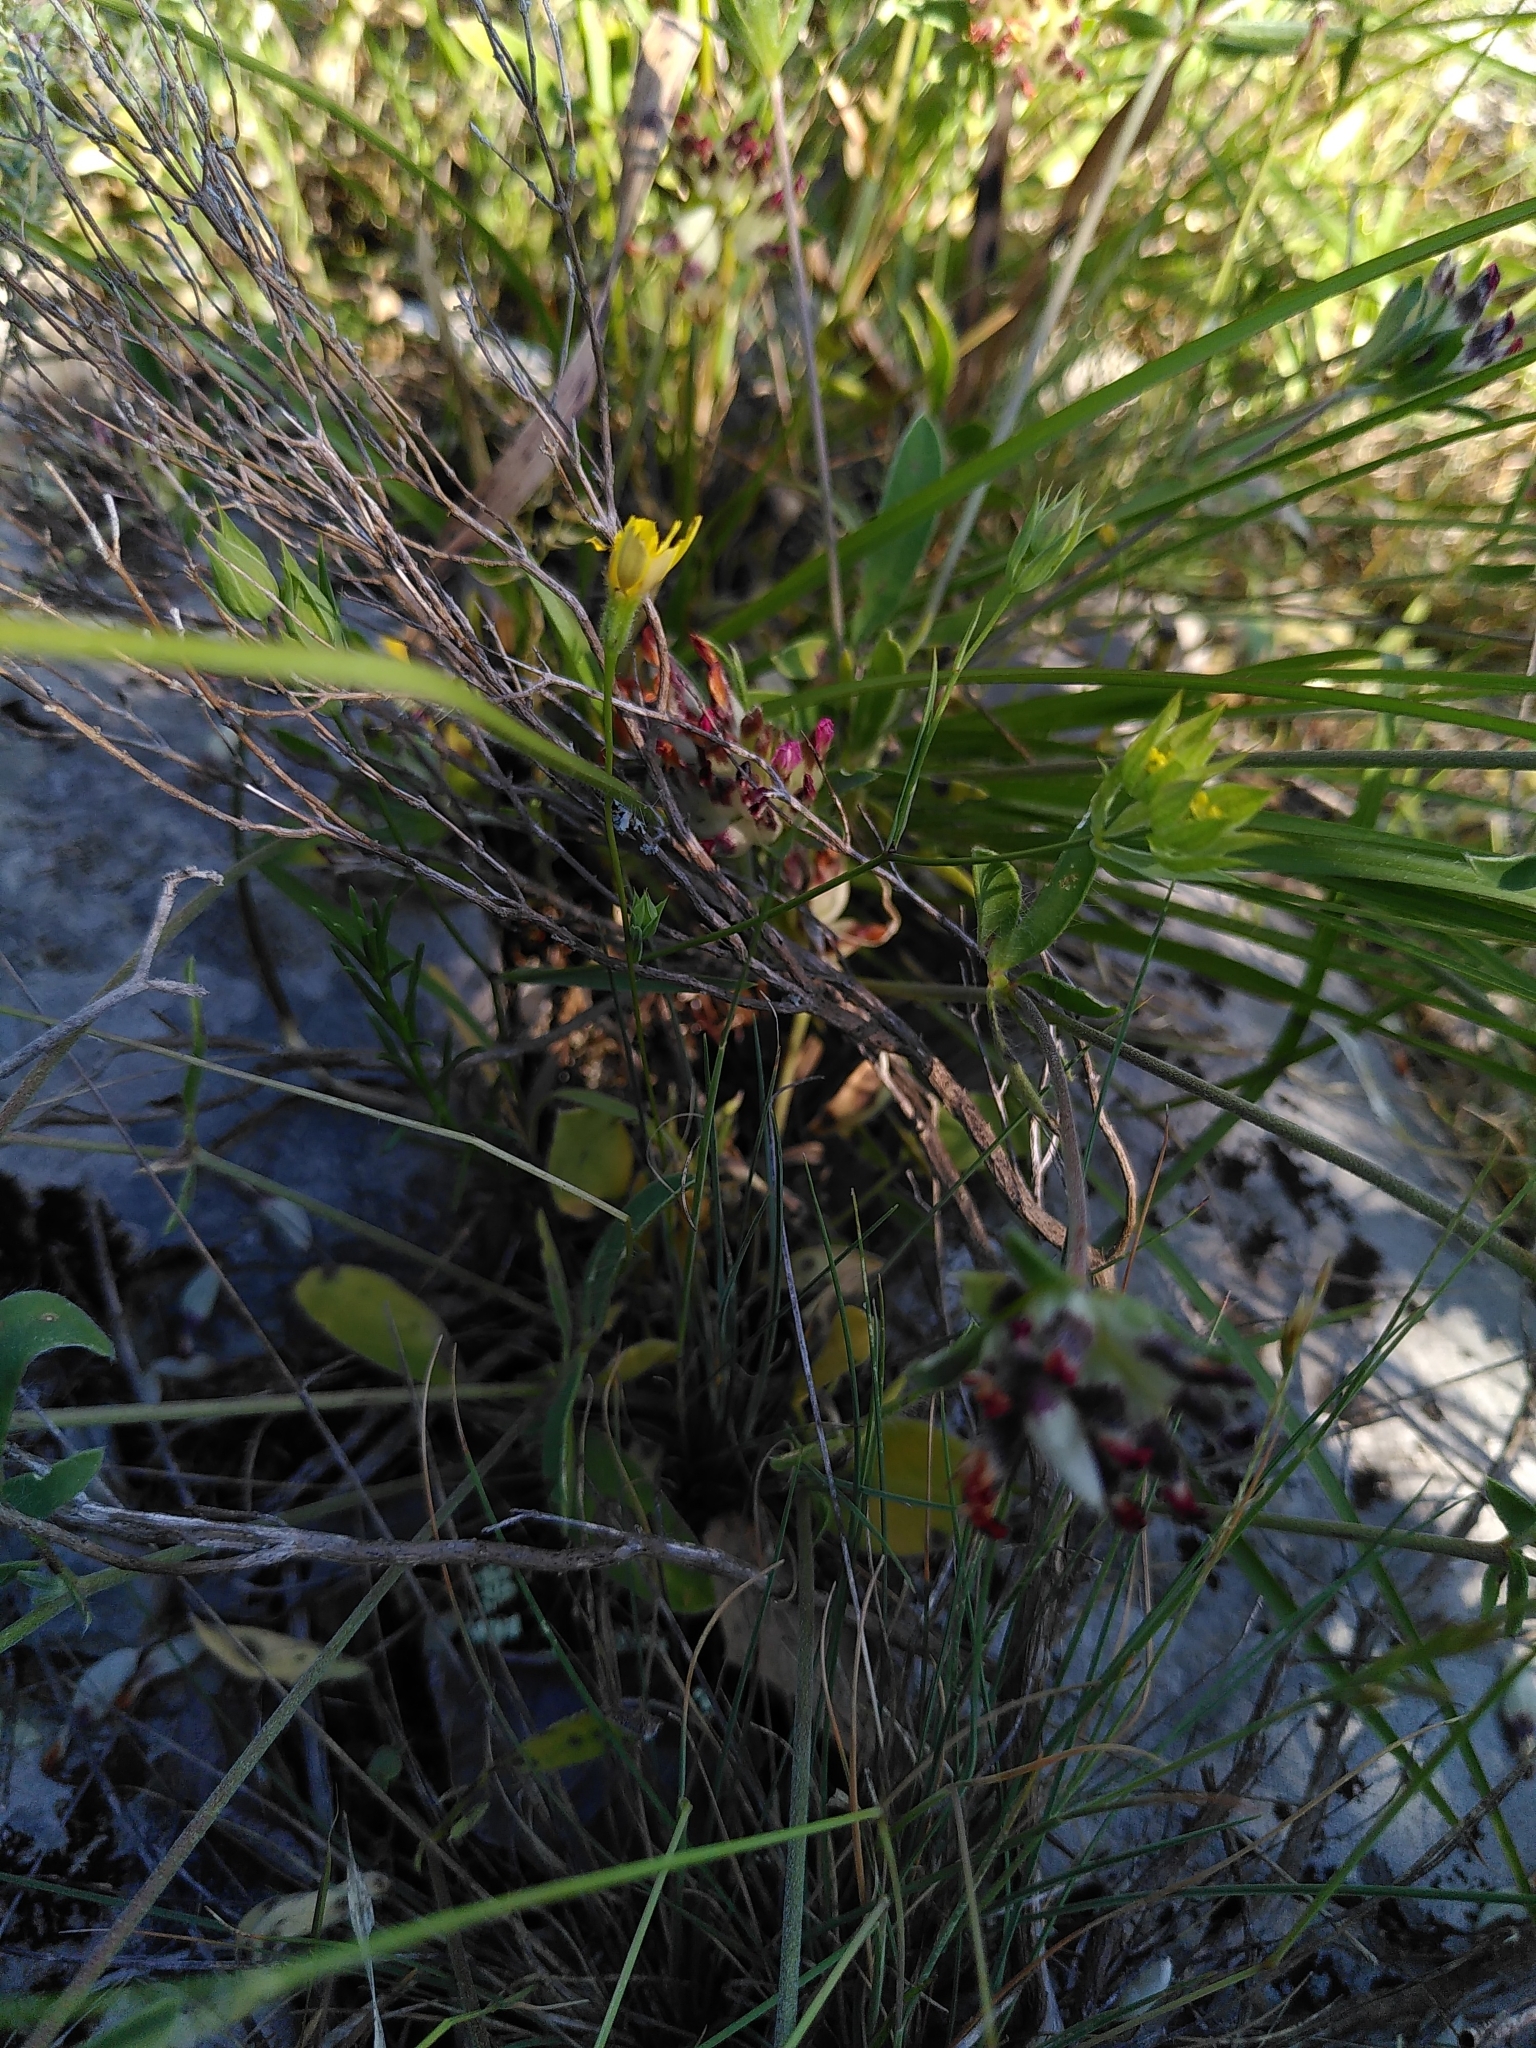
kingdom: Plantae
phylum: Tracheophyta
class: Magnoliopsida
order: Apiales
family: Apiaceae
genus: Bupleurum
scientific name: Bupleurum baldense
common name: Small hare's-ear
